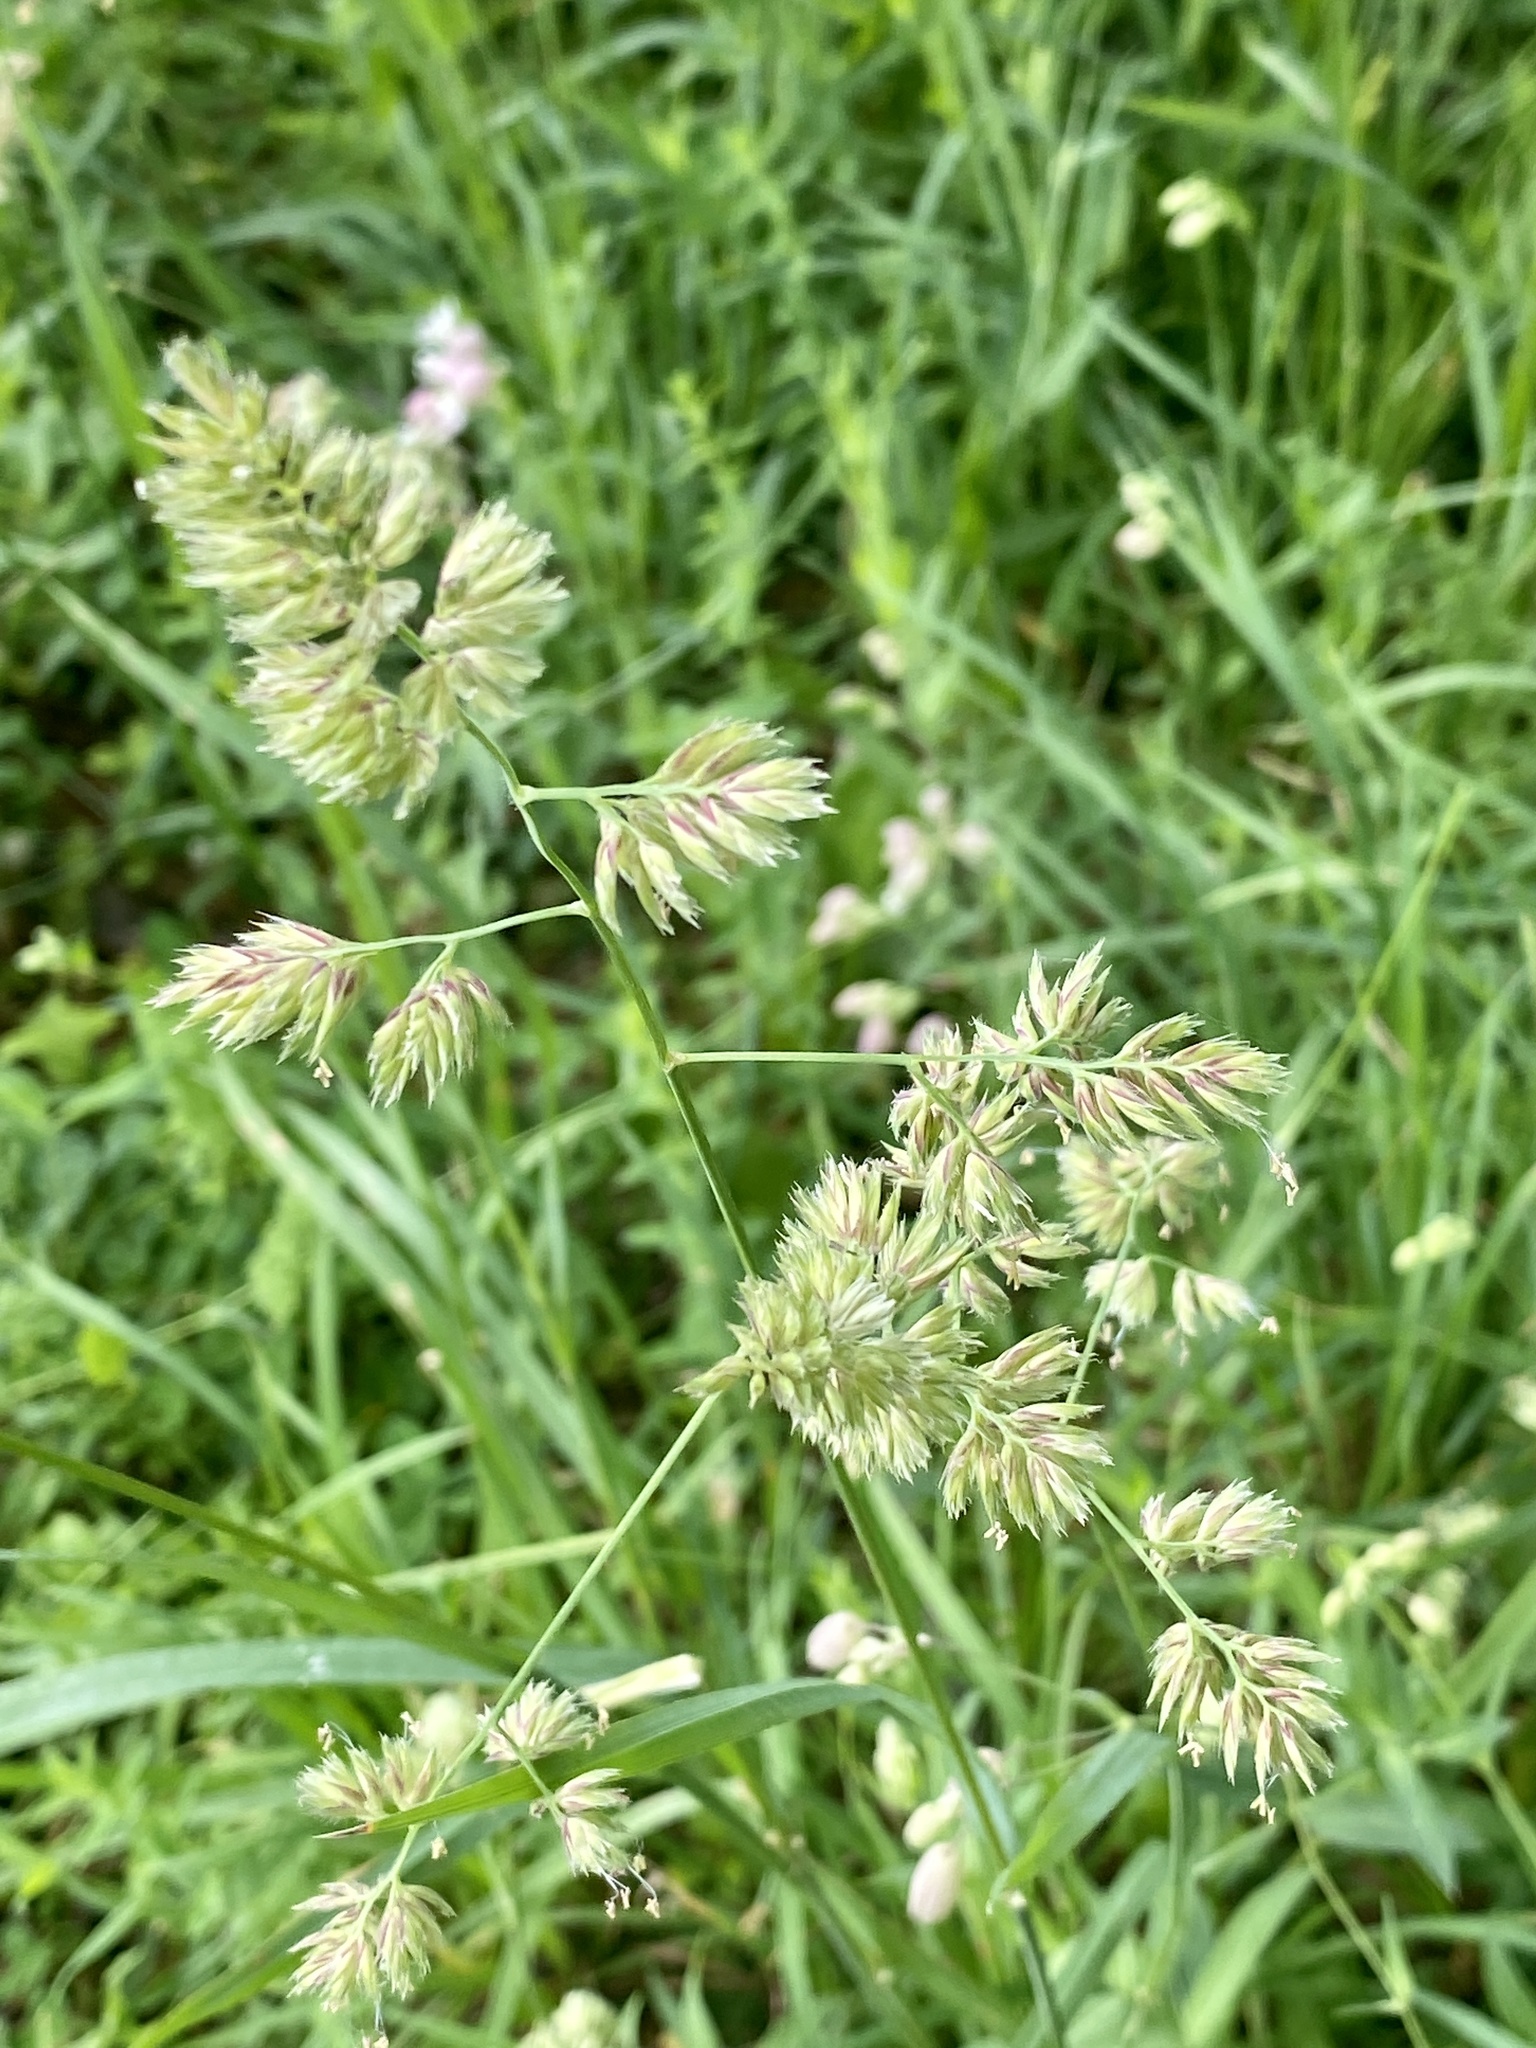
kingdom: Plantae
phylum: Tracheophyta
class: Liliopsida
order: Poales
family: Poaceae
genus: Dactylis
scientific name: Dactylis glomerata
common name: Orchardgrass
